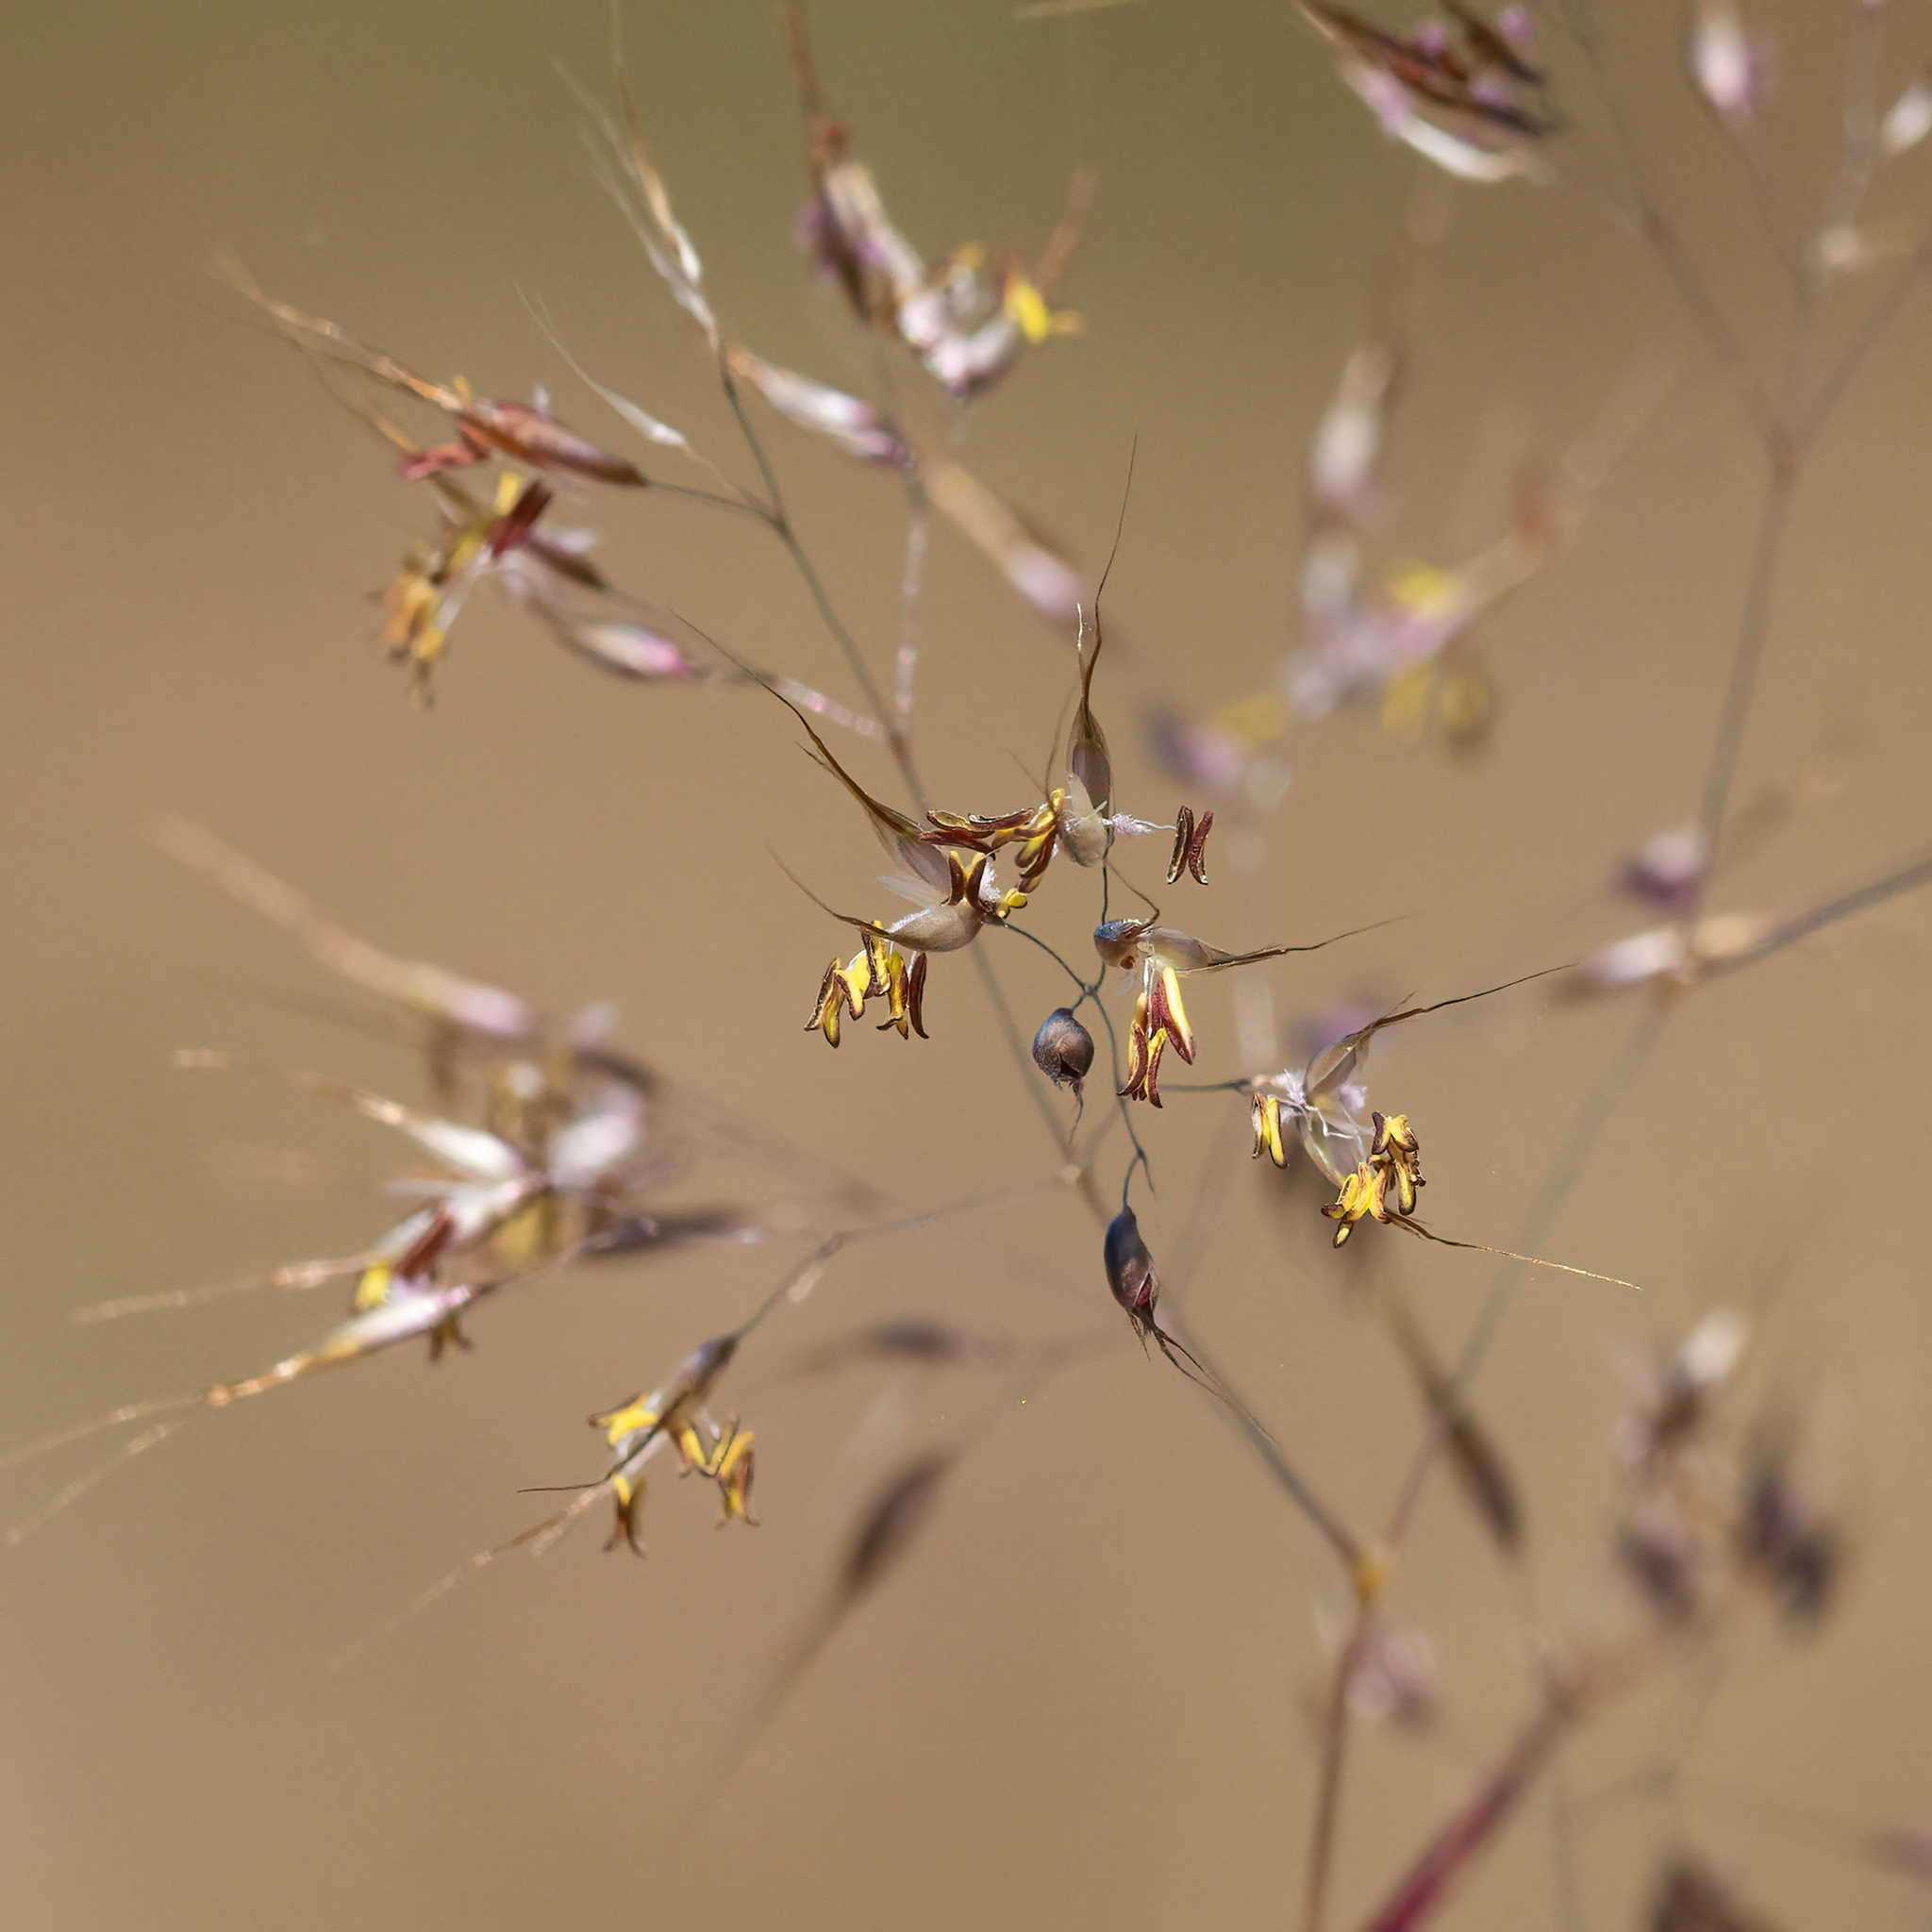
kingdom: Plantae
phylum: Tracheophyta
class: Liliopsida
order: Poales
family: Poaceae
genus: Pentameris
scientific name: Pentameris pallida
